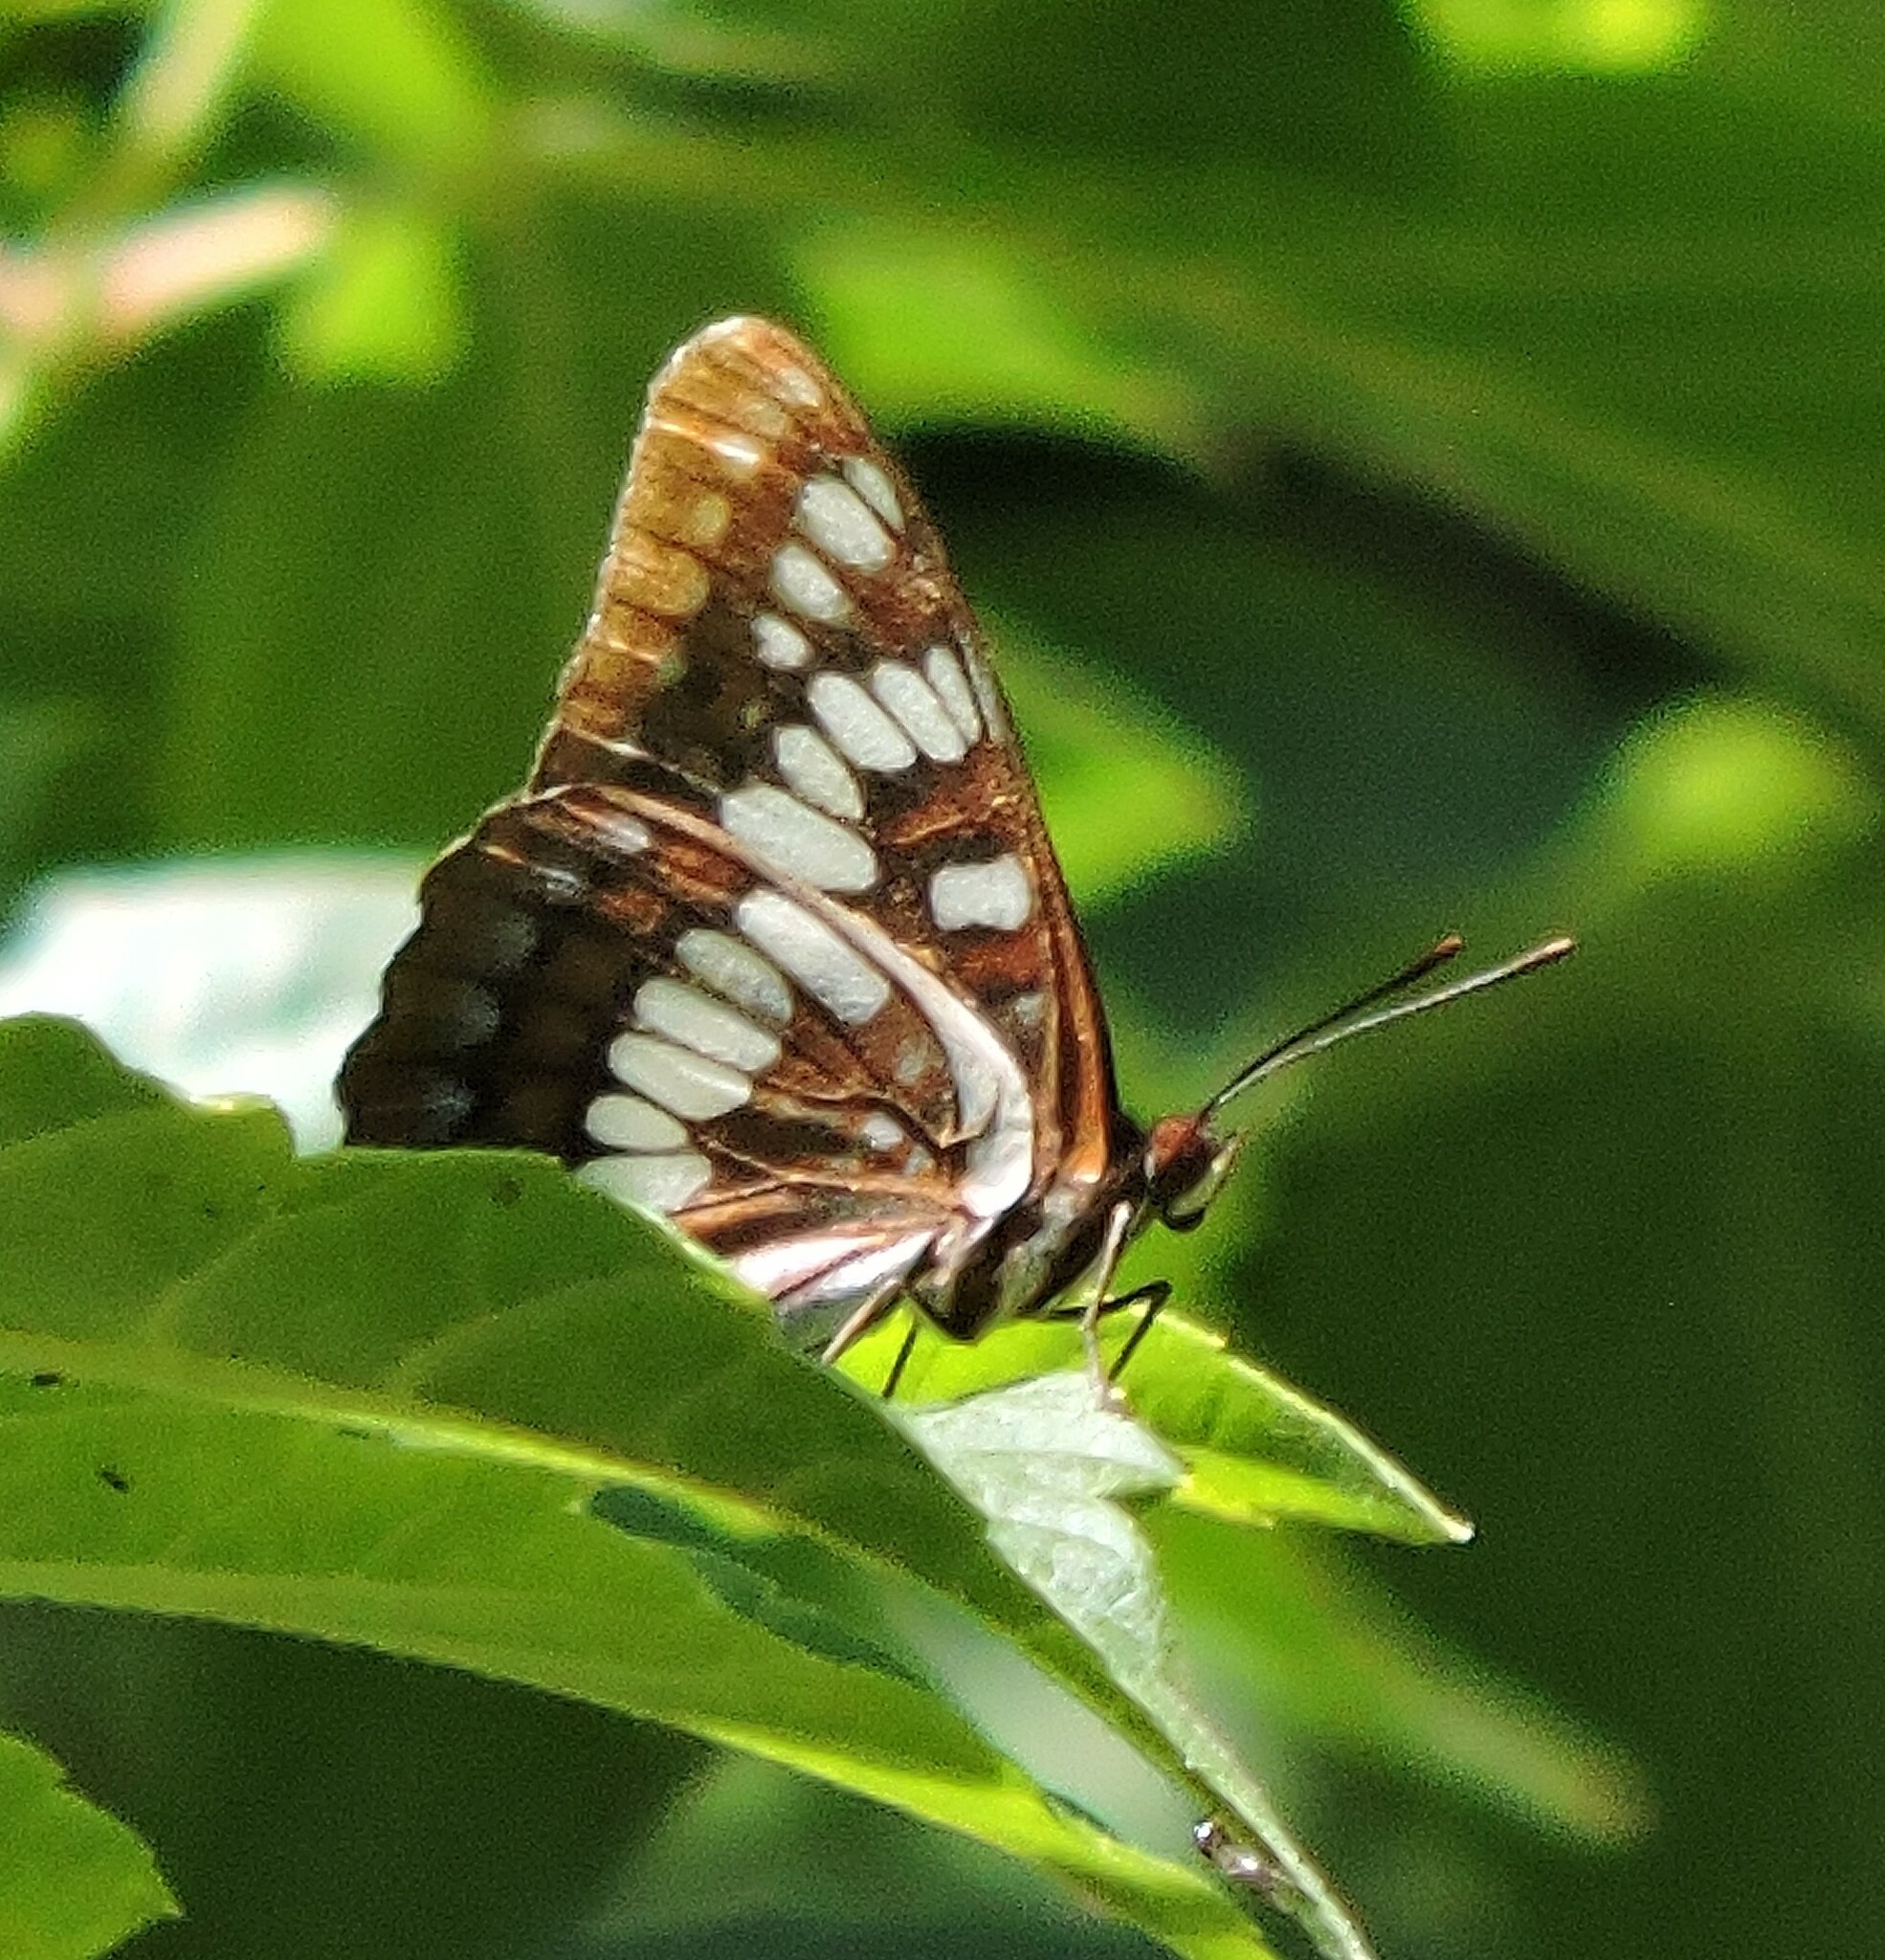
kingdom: Animalia
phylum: Arthropoda
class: Insecta
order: Lepidoptera
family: Nymphalidae
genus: Limenitis
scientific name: Limenitis lorquini
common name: Lorquin's admiral
